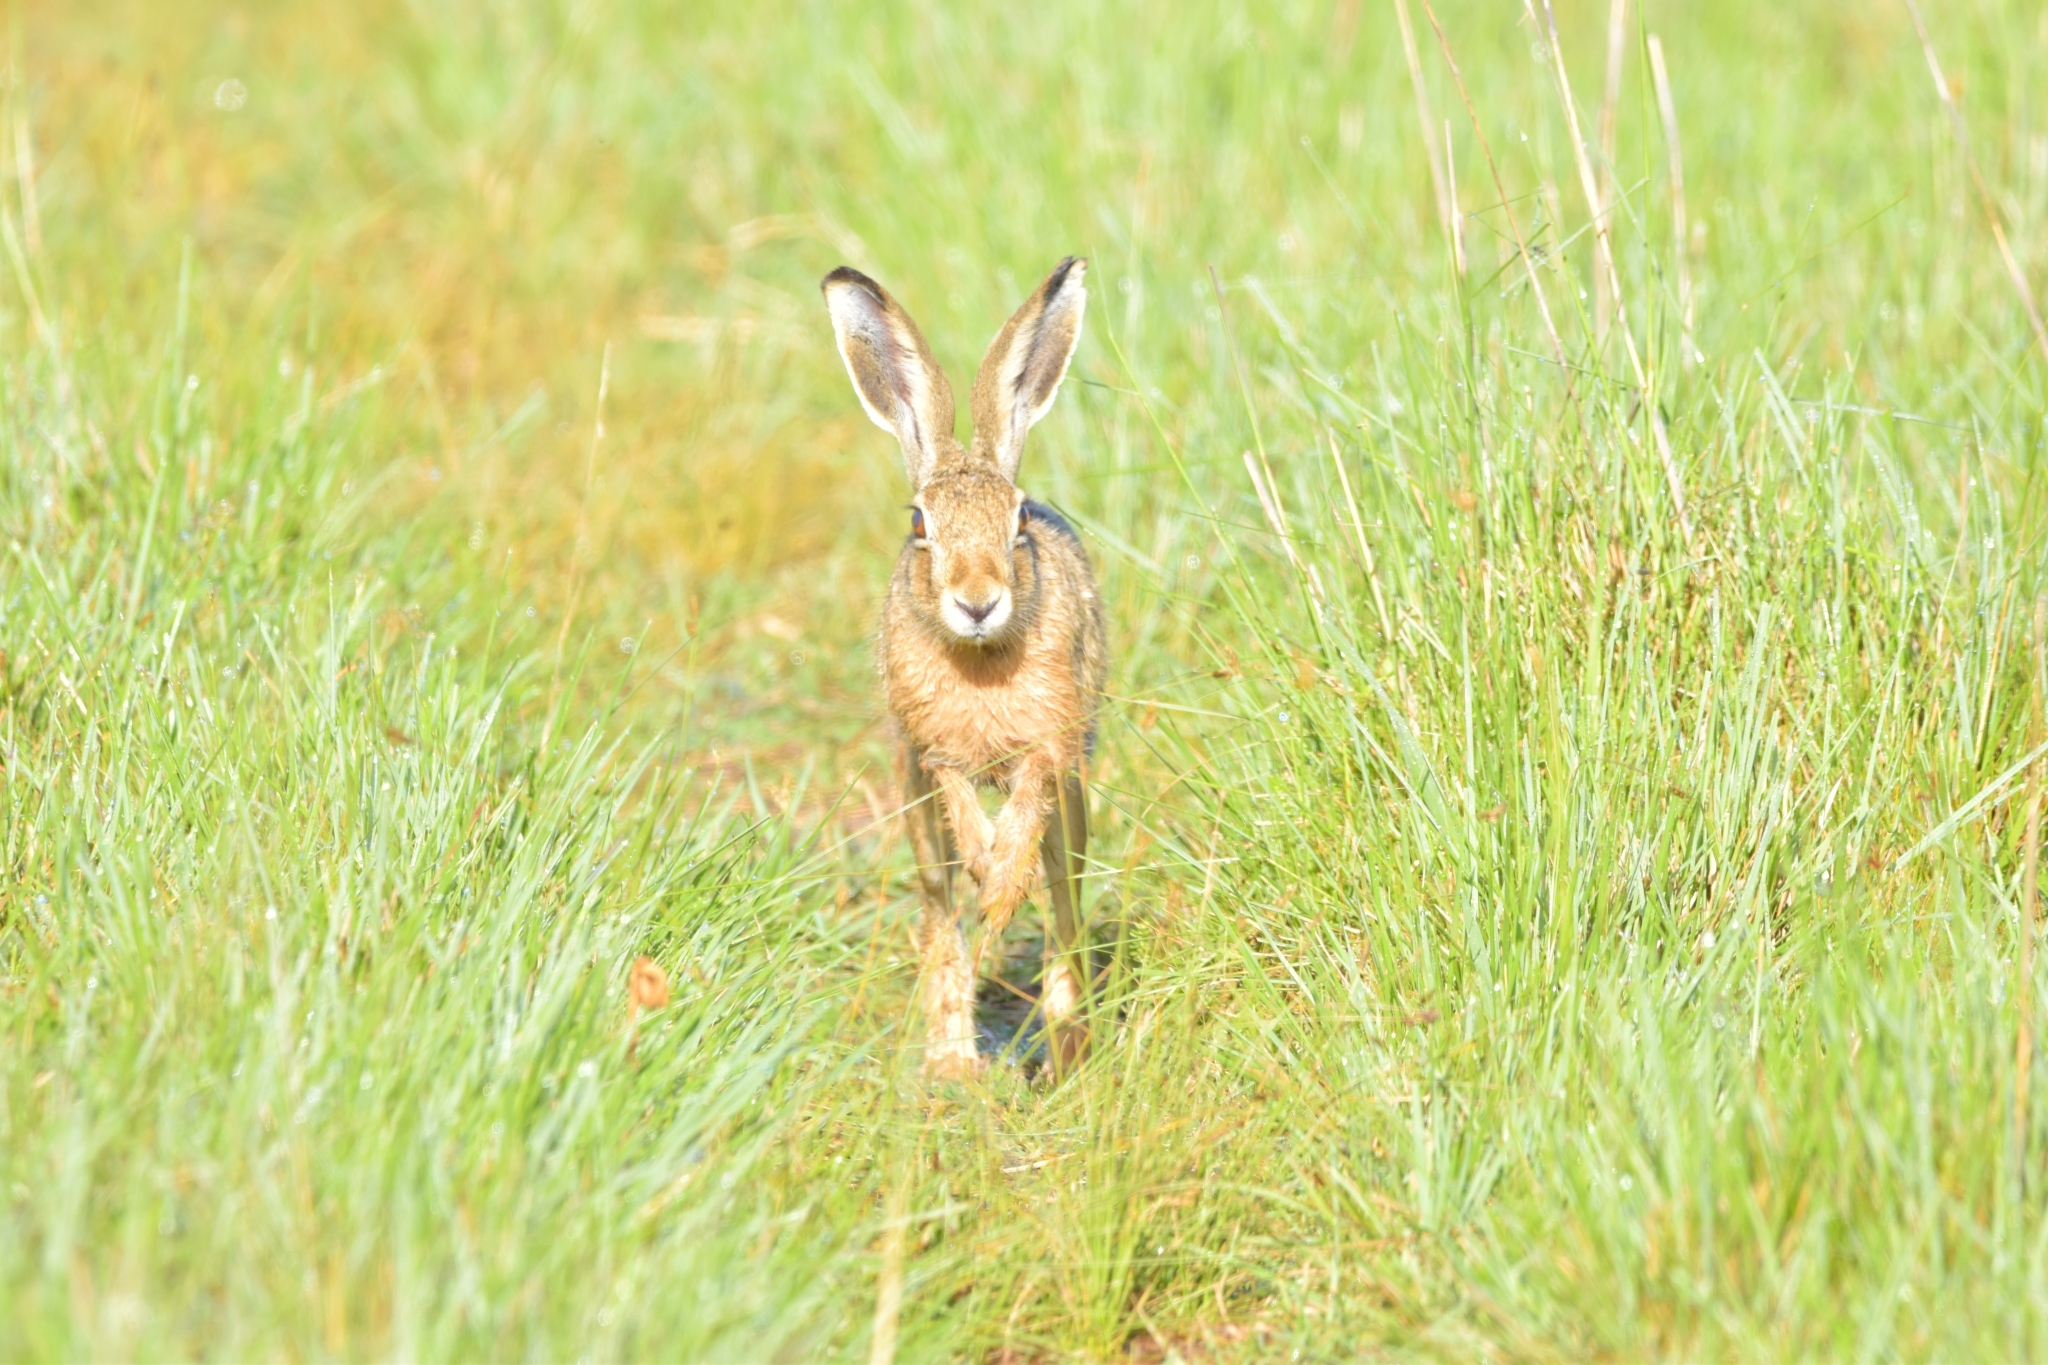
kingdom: Animalia
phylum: Chordata
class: Mammalia
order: Lagomorpha
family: Leporidae
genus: Lepus
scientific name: Lepus europaeus
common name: European hare
